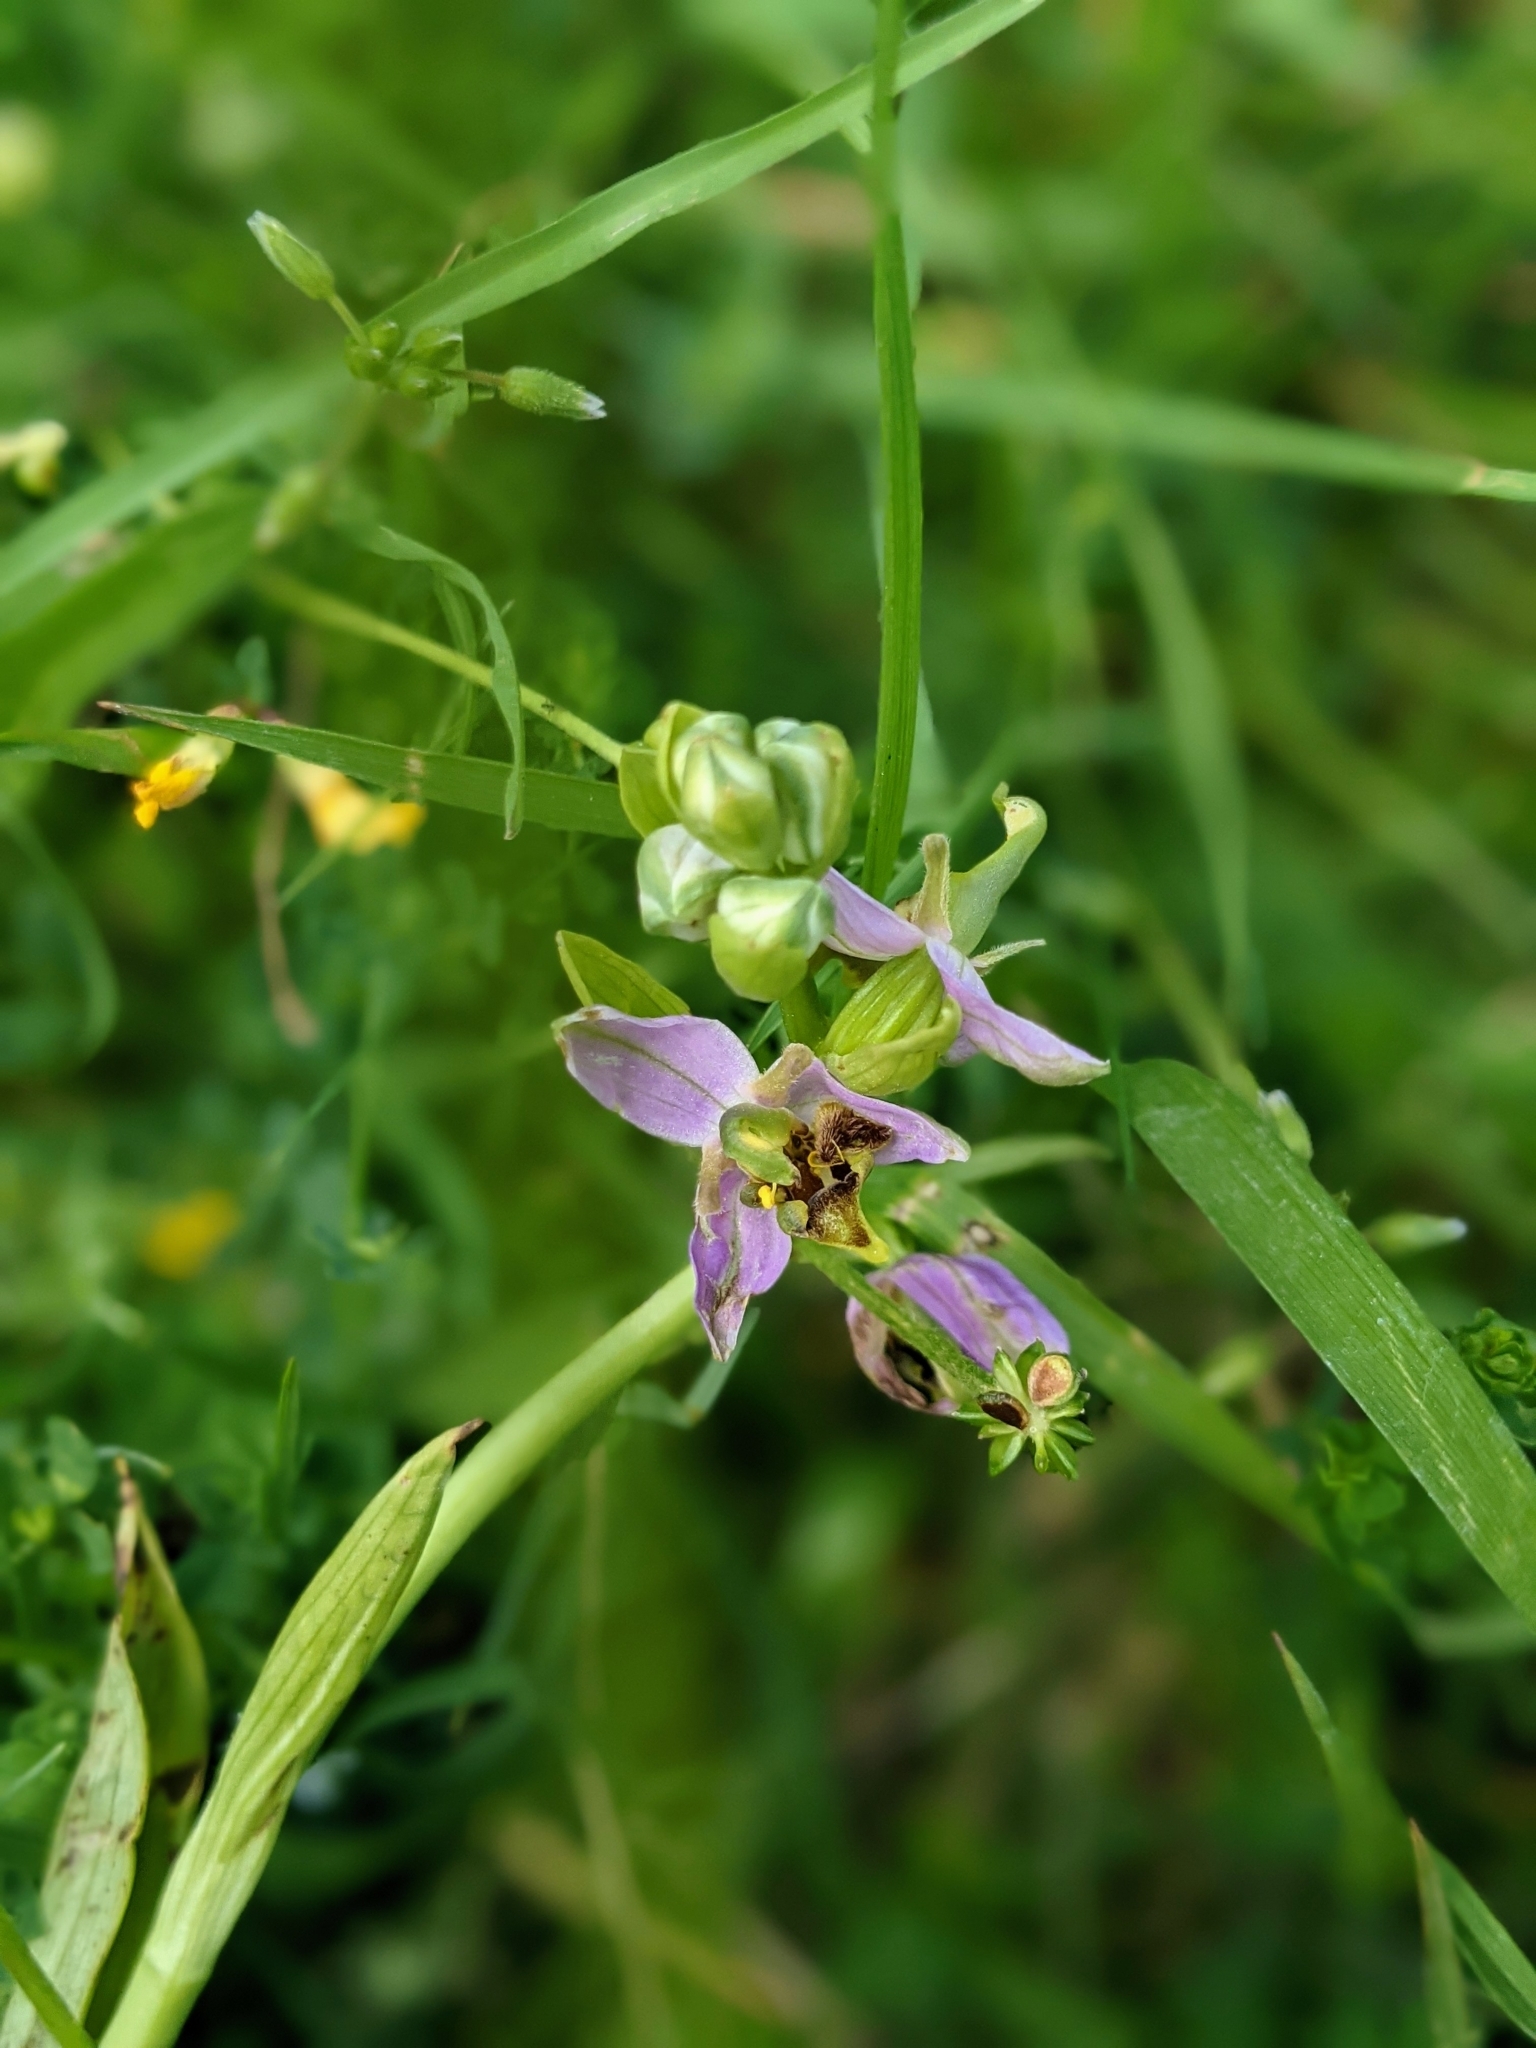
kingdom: Plantae
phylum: Tracheophyta
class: Liliopsida
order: Asparagales
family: Orchidaceae
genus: Ophrys
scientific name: Ophrys apifera
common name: Bee orchid
